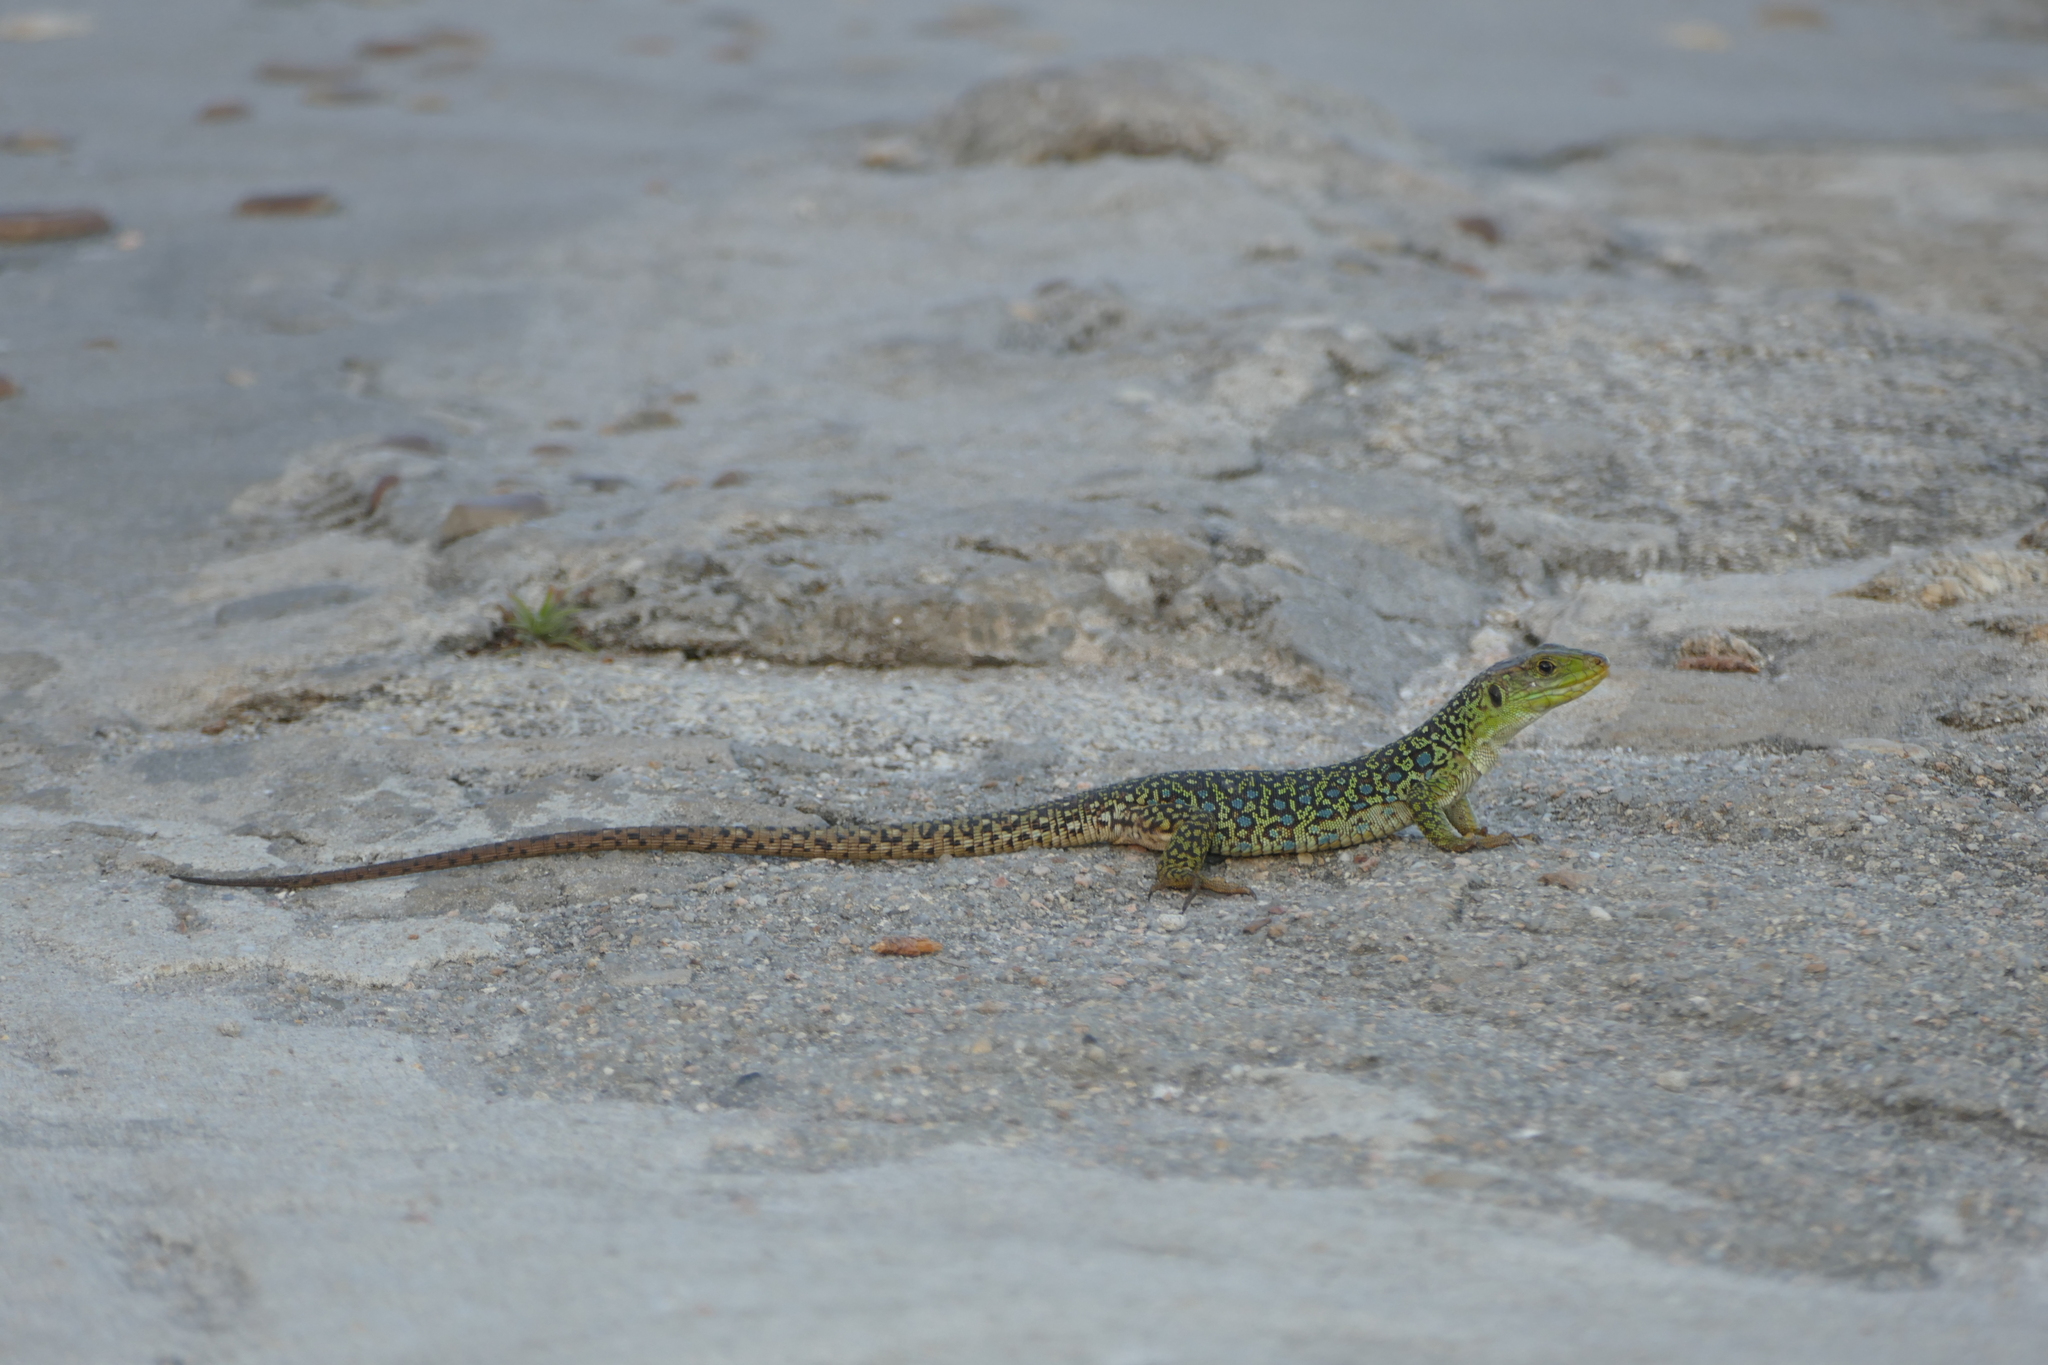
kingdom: Animalia
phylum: Chordata
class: Squamata
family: Lacertidae
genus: Timon
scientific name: Timon lepidus
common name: Ocellated lizard
